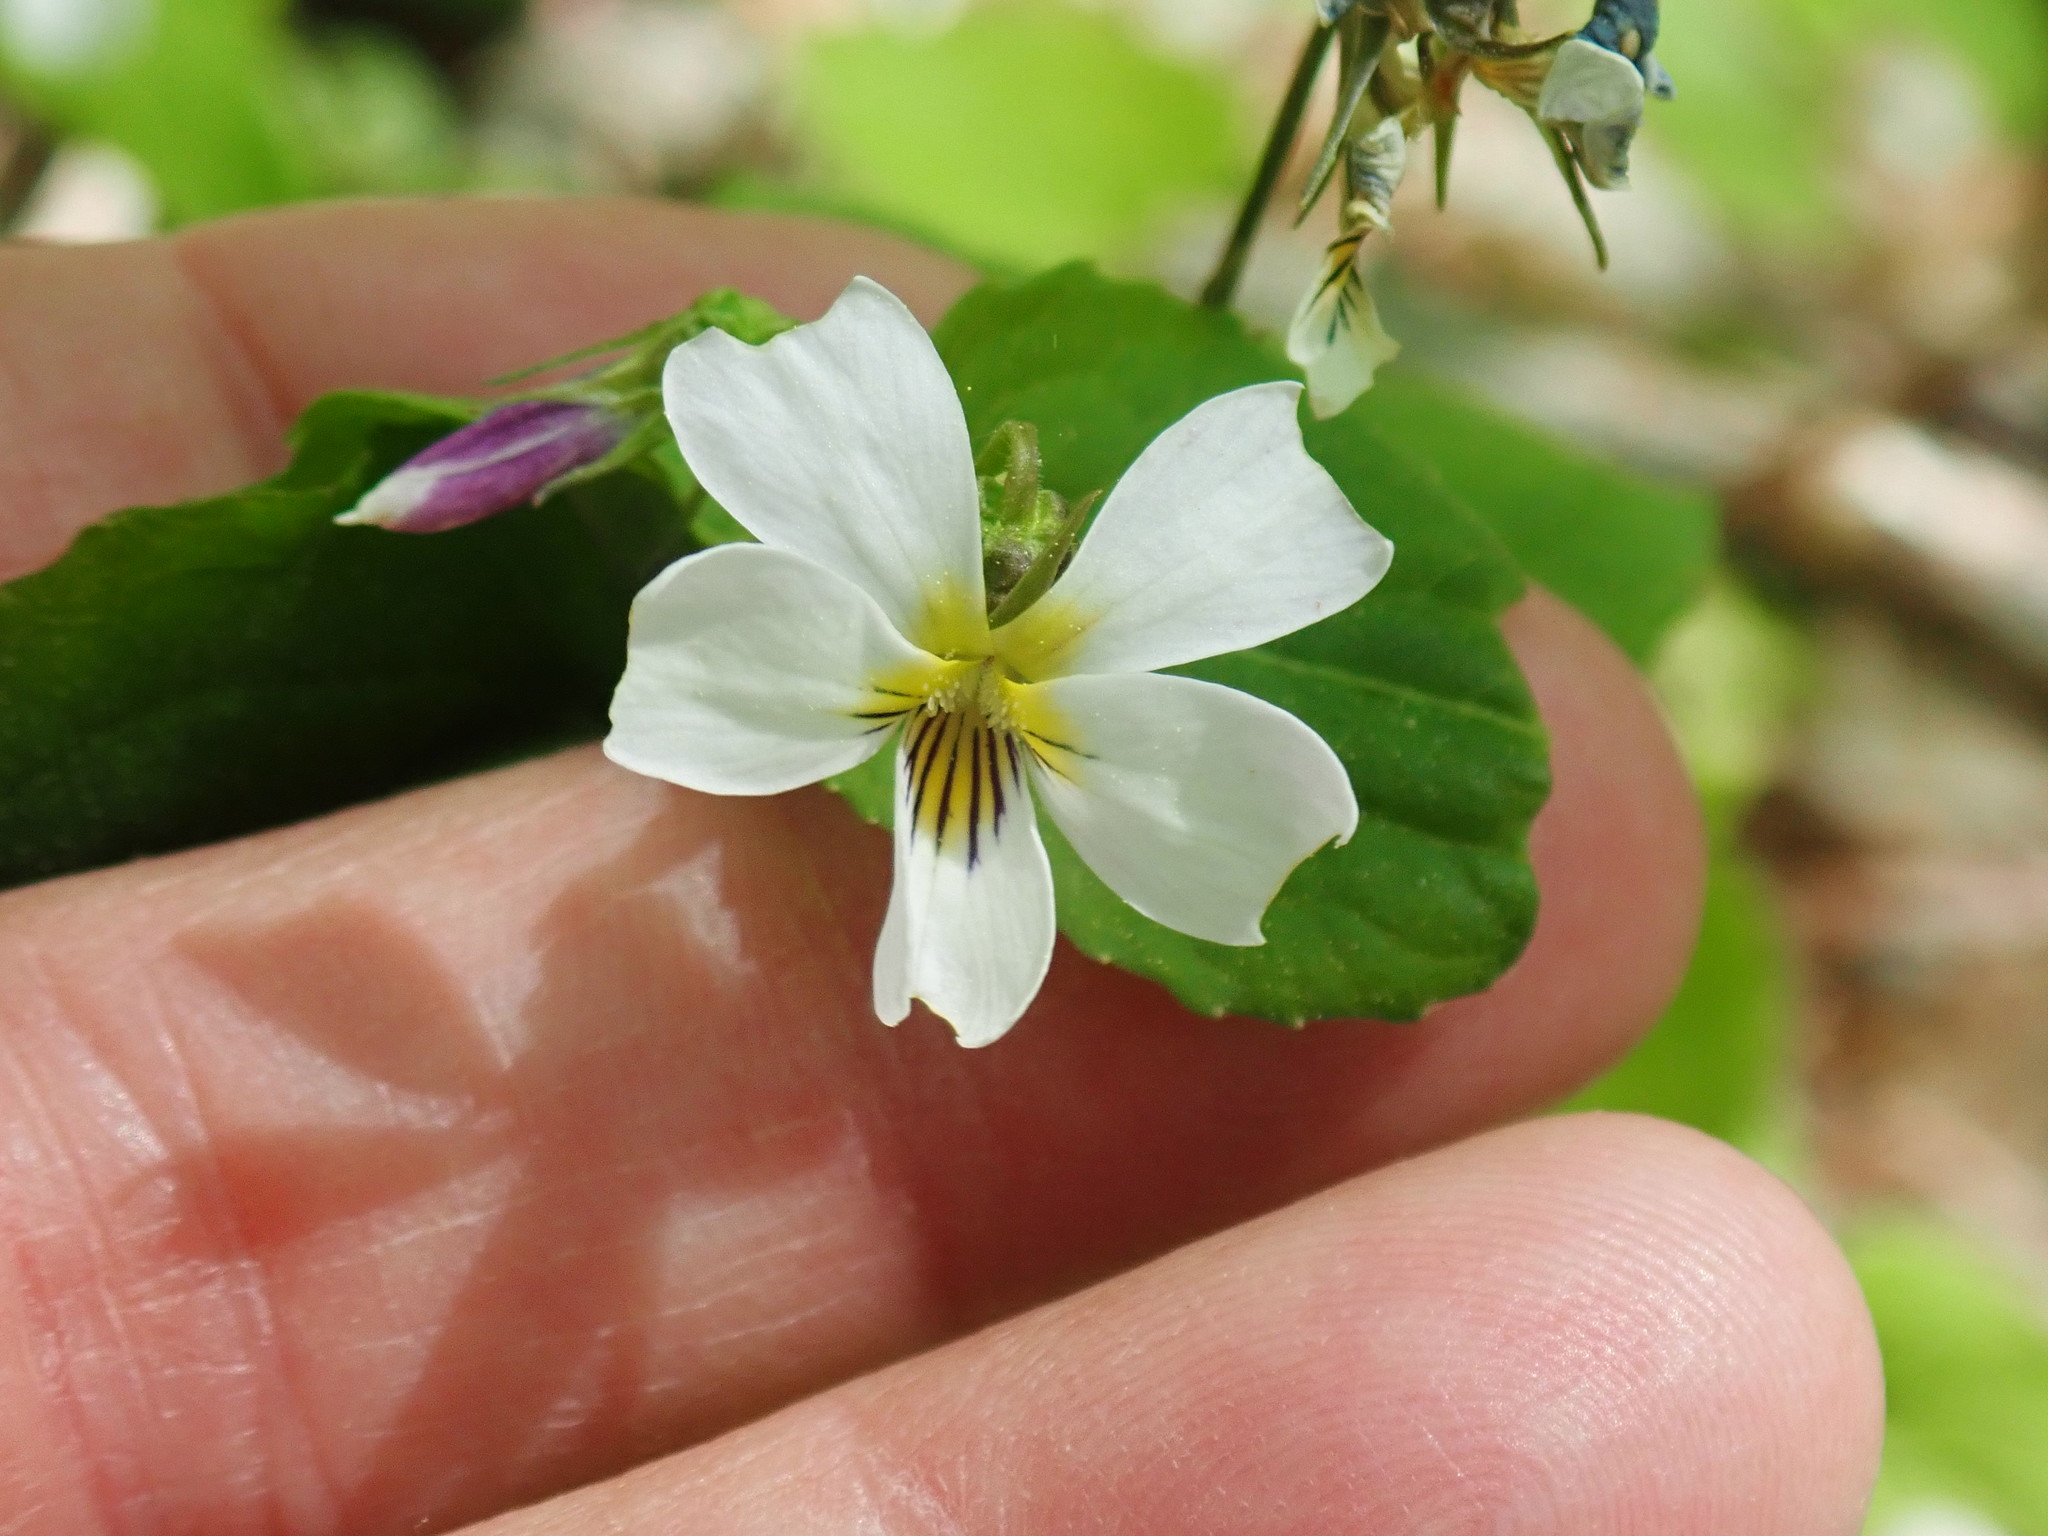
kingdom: Plantae
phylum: Tracheophyta
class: Magnoliopsida
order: Malpighiales
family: Violaceae
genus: Viola
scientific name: Viola canadensis
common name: Canada violet
